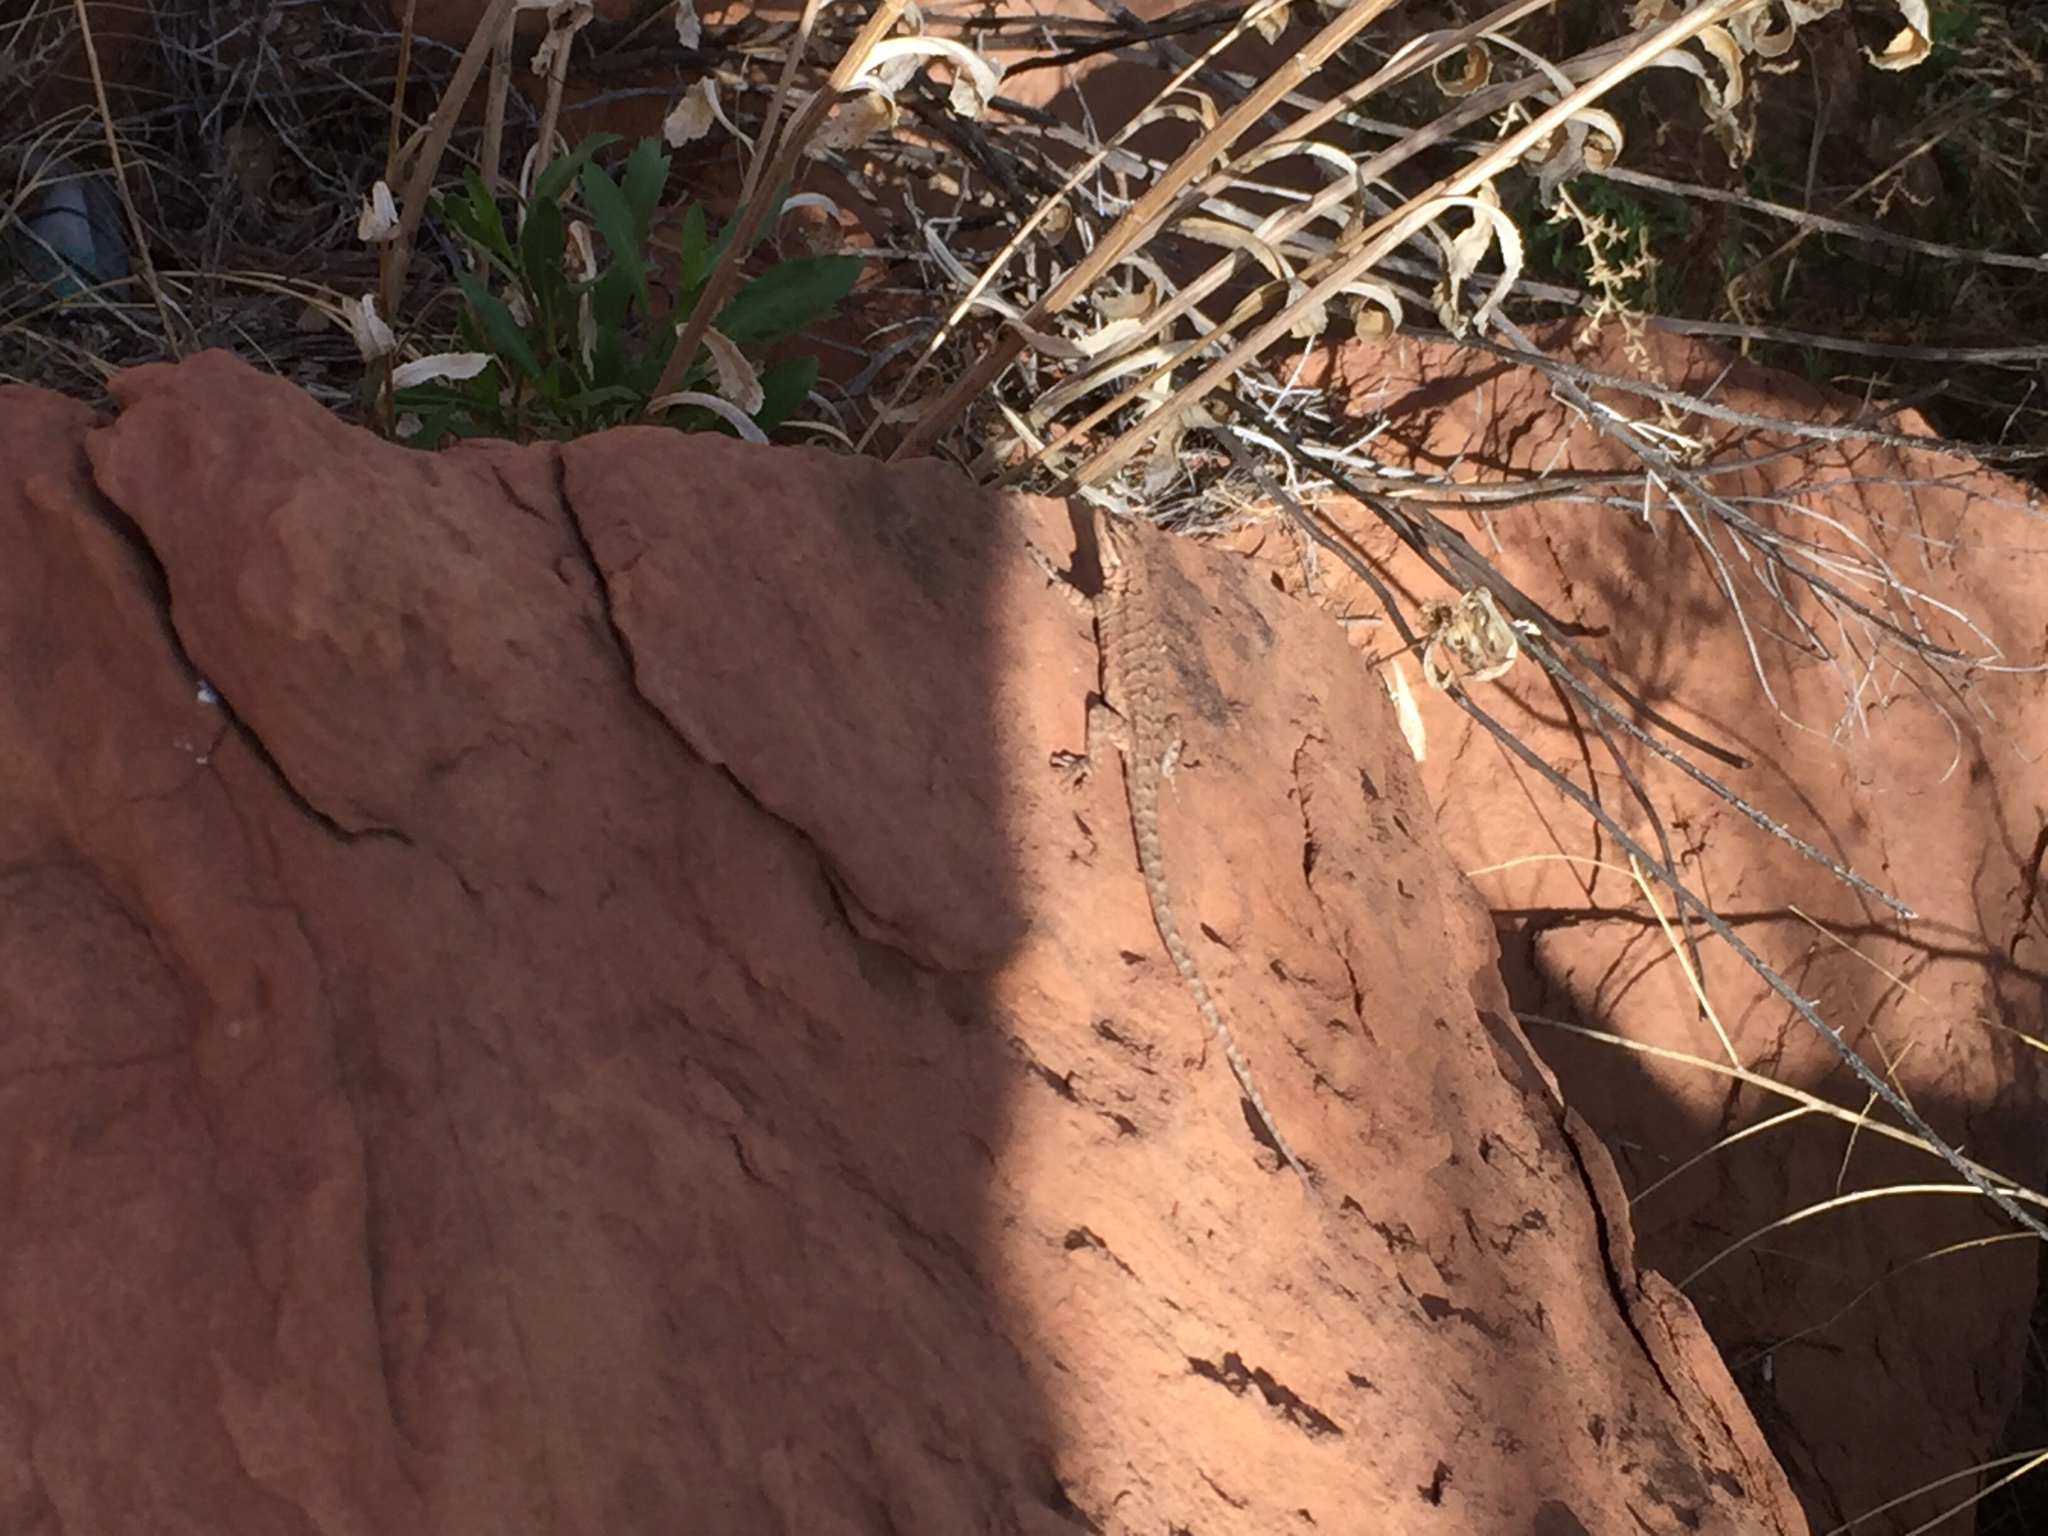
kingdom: Animalia
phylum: Chordata
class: Squamata
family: Phrynosomatidae
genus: Urosaurus
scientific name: Urosaurus ornatus
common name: Ornate tree lizard
